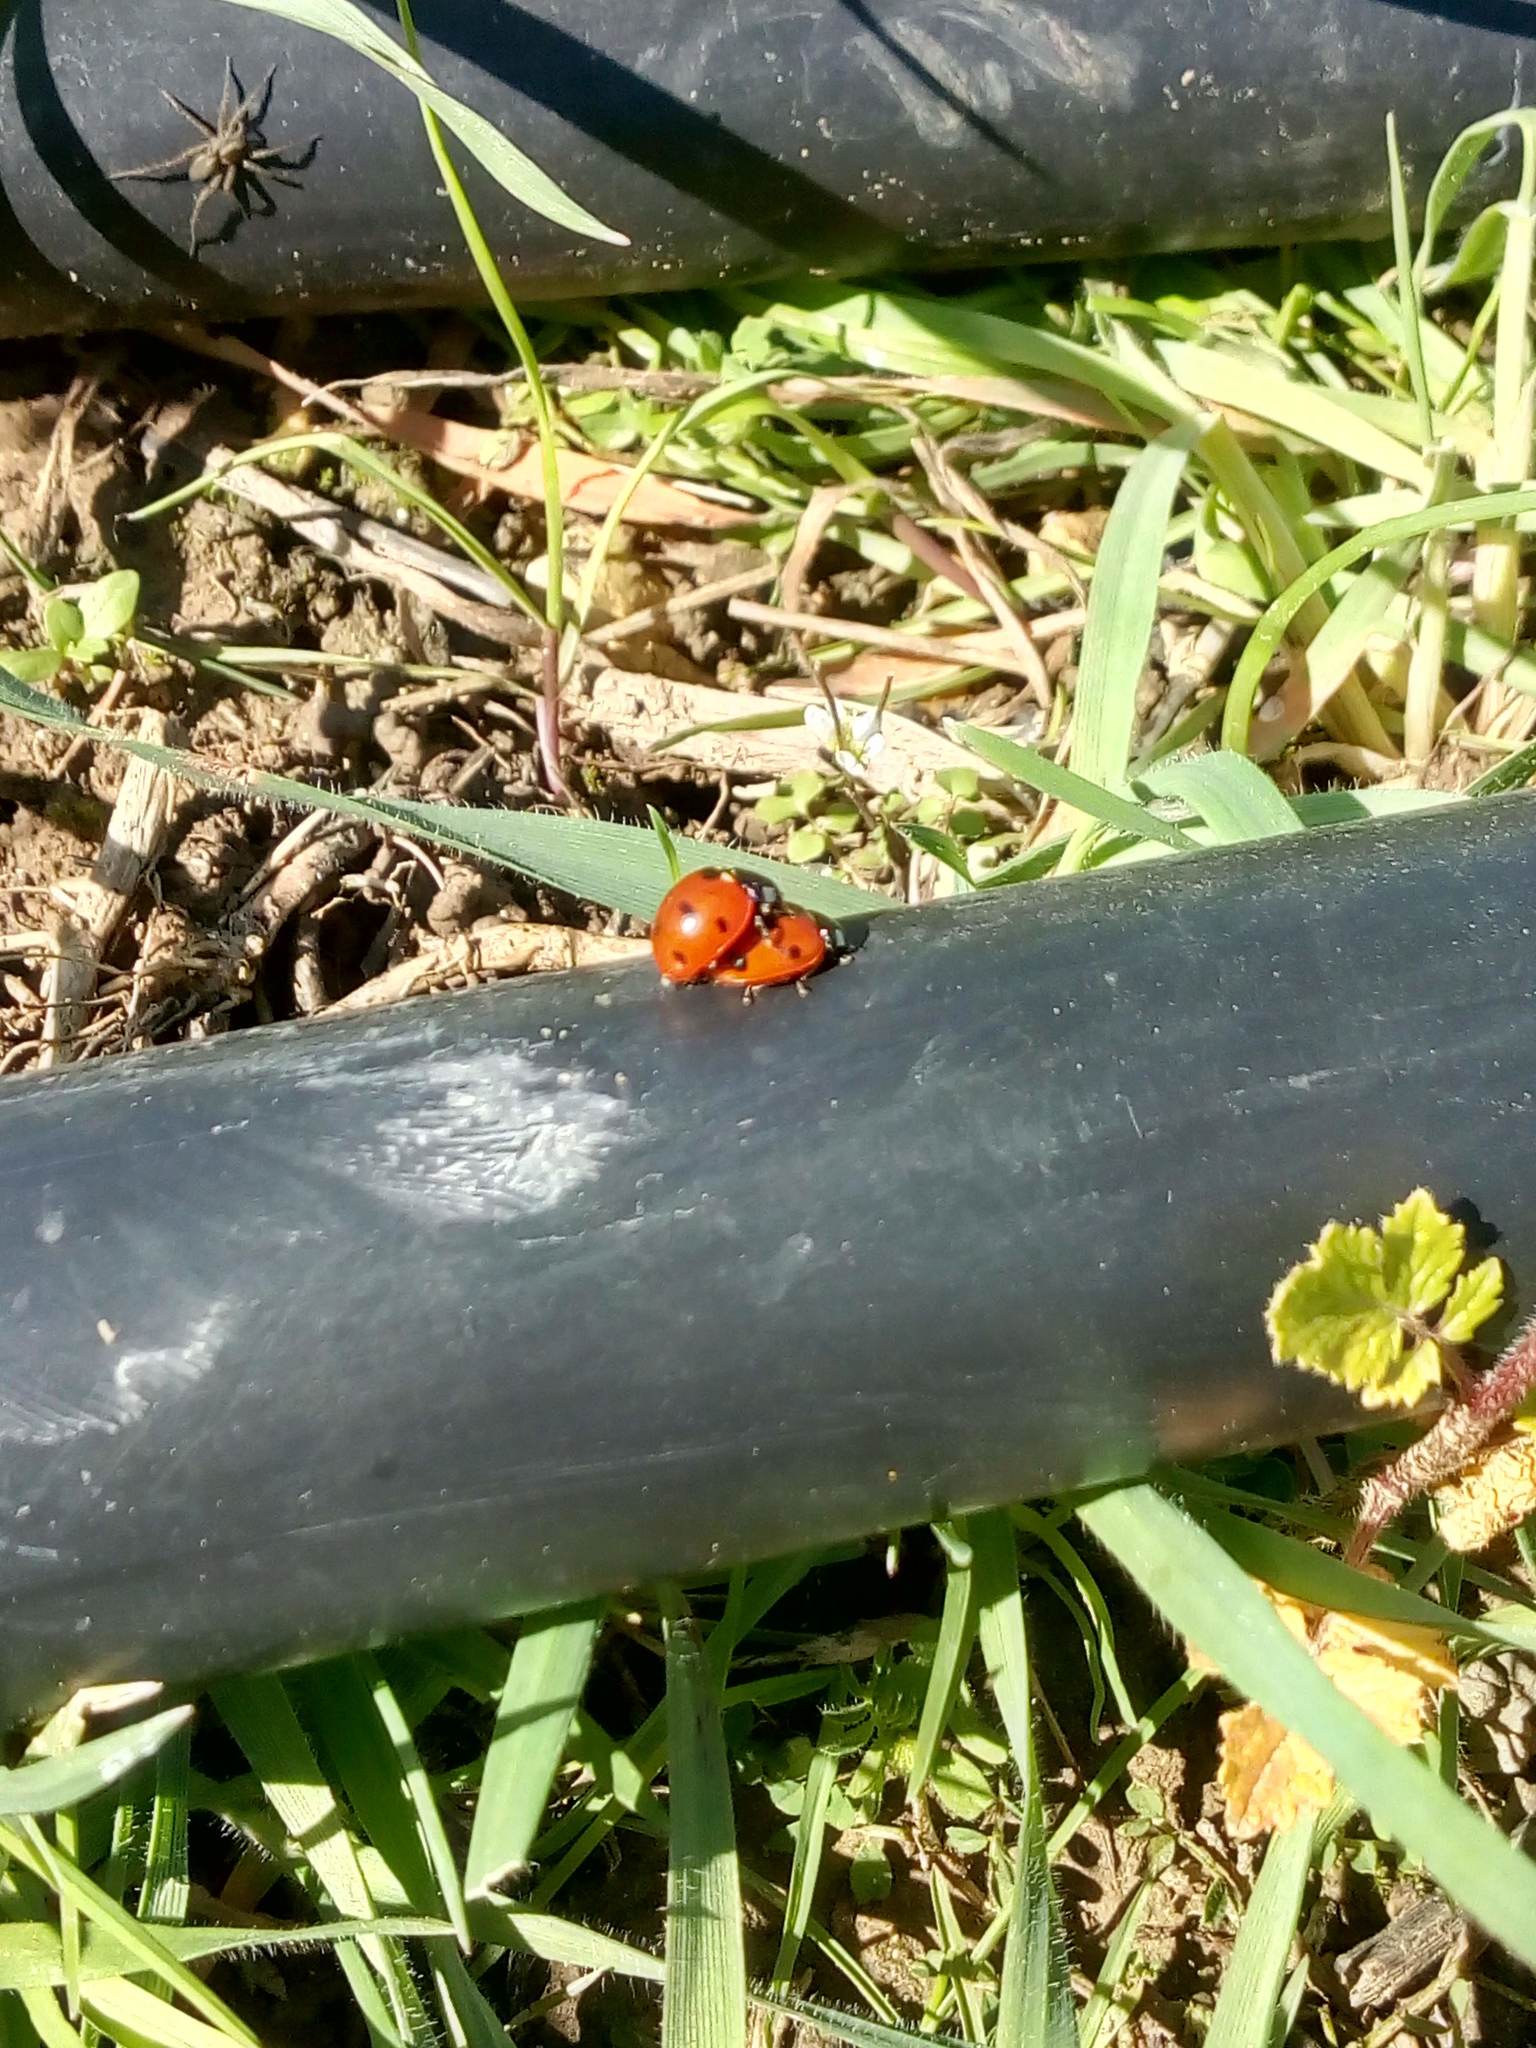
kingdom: Animalia
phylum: Arthropoda
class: Insecta
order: Coleoptera
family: Coccinellidae
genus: Coccinella
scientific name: Coccinella septempunctata
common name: Sevenspotted lady beetle
